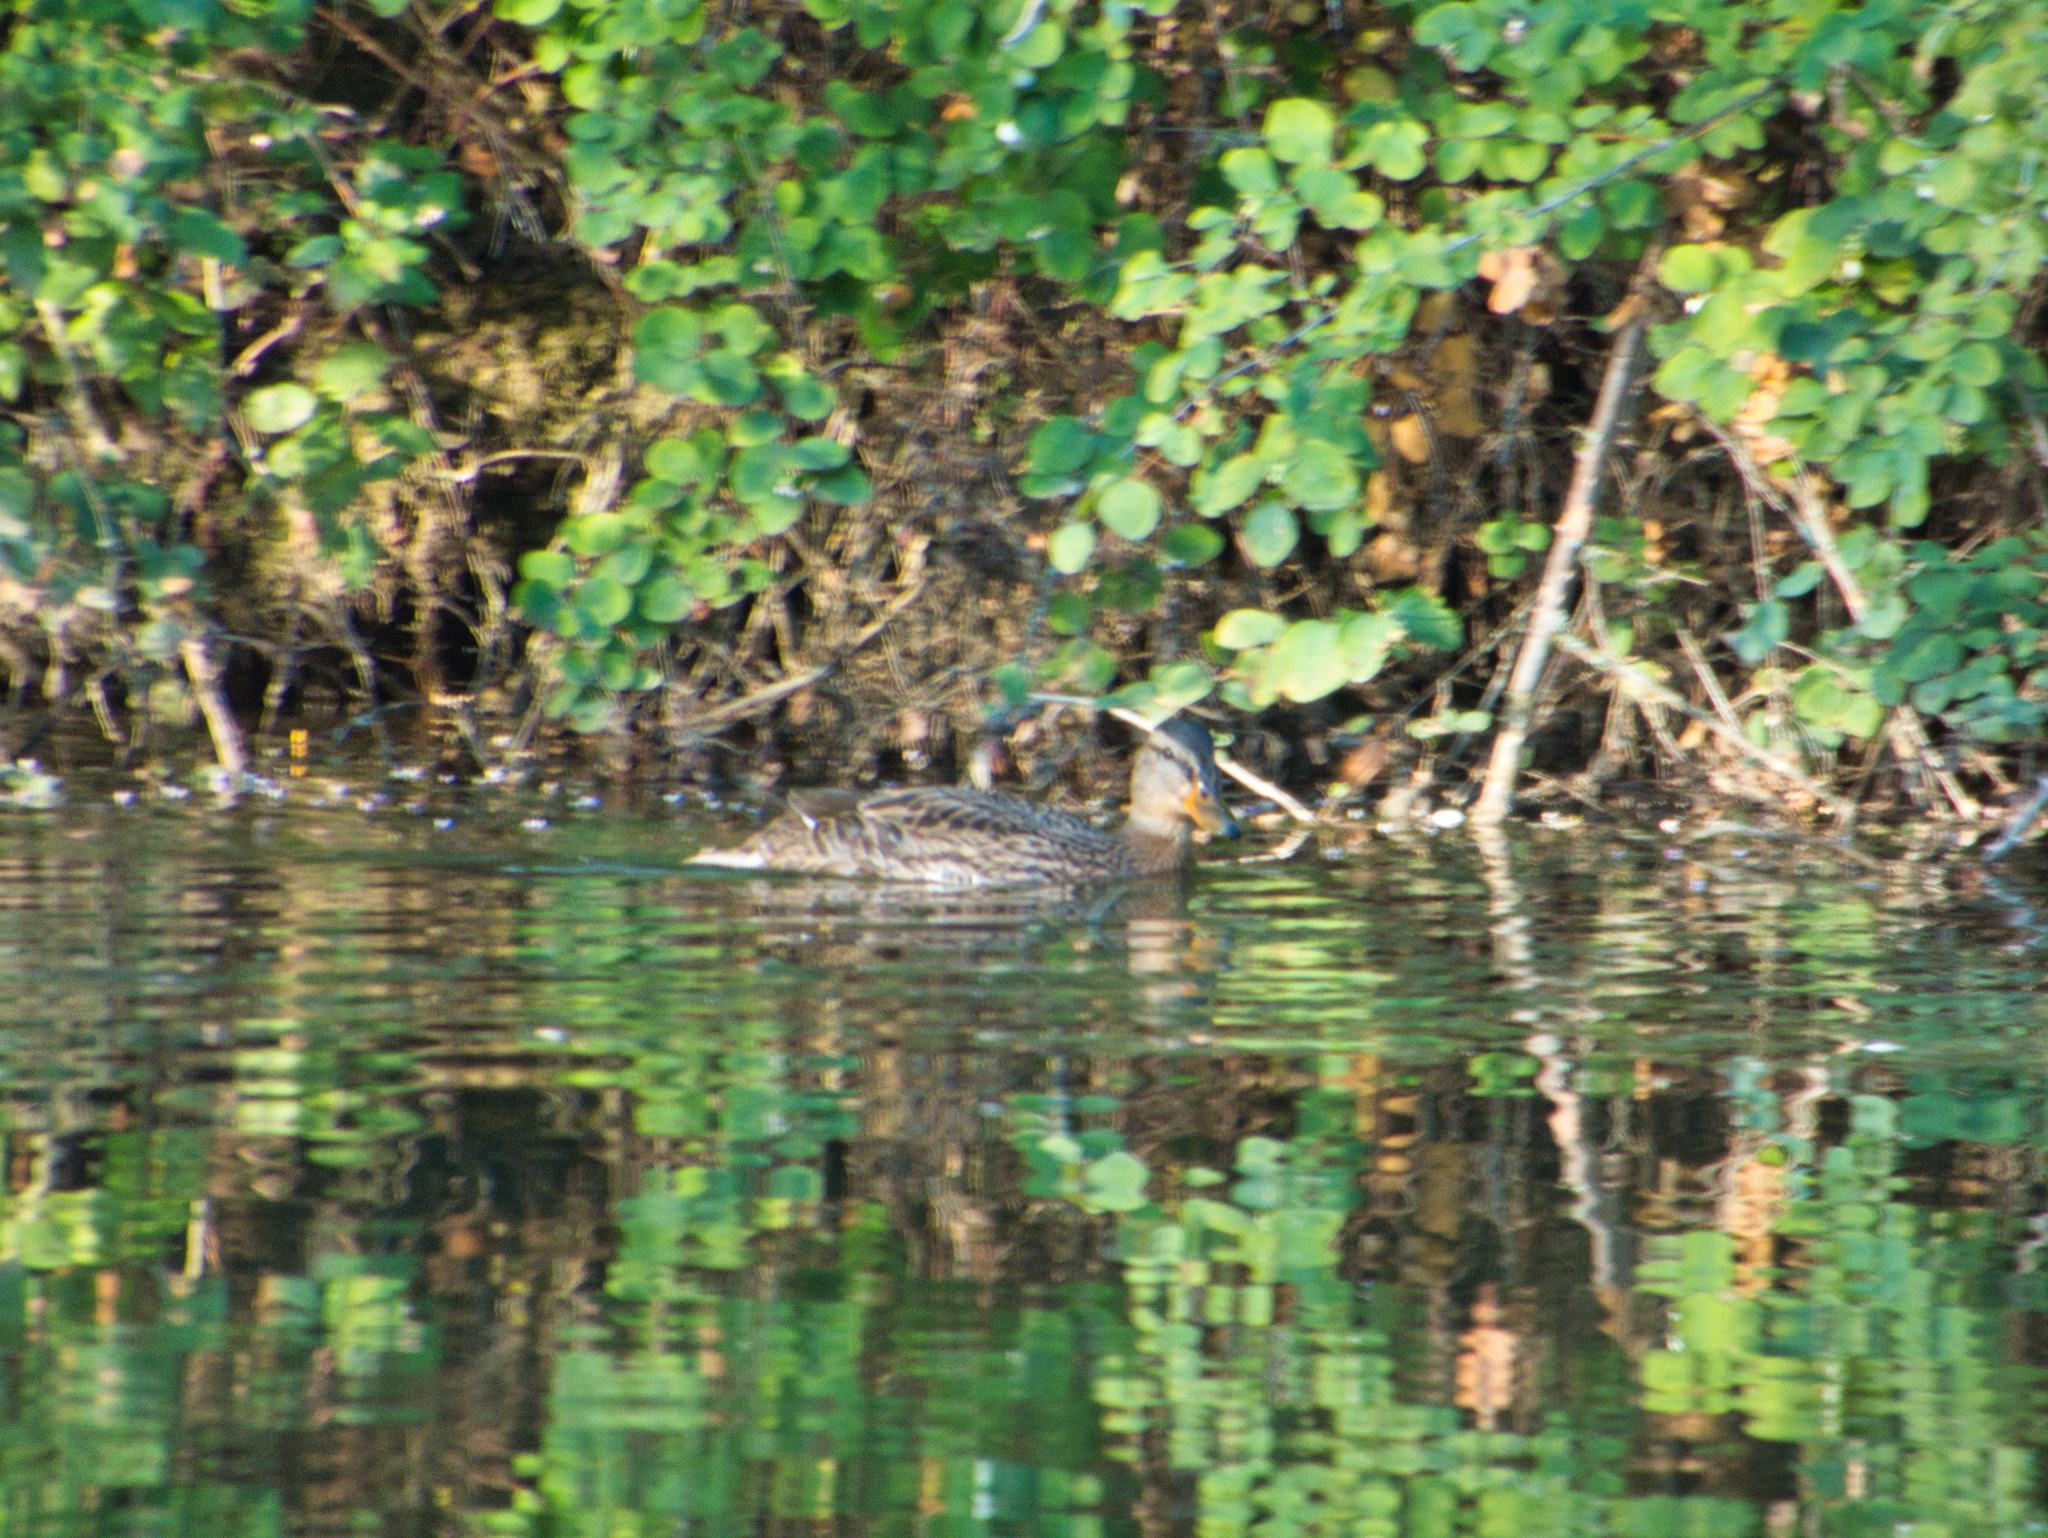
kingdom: Animalia
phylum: Chordata
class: Aves
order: Anseriformes
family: Anatidae
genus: Anas
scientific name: Anas platyrhynchos
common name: Mallard
